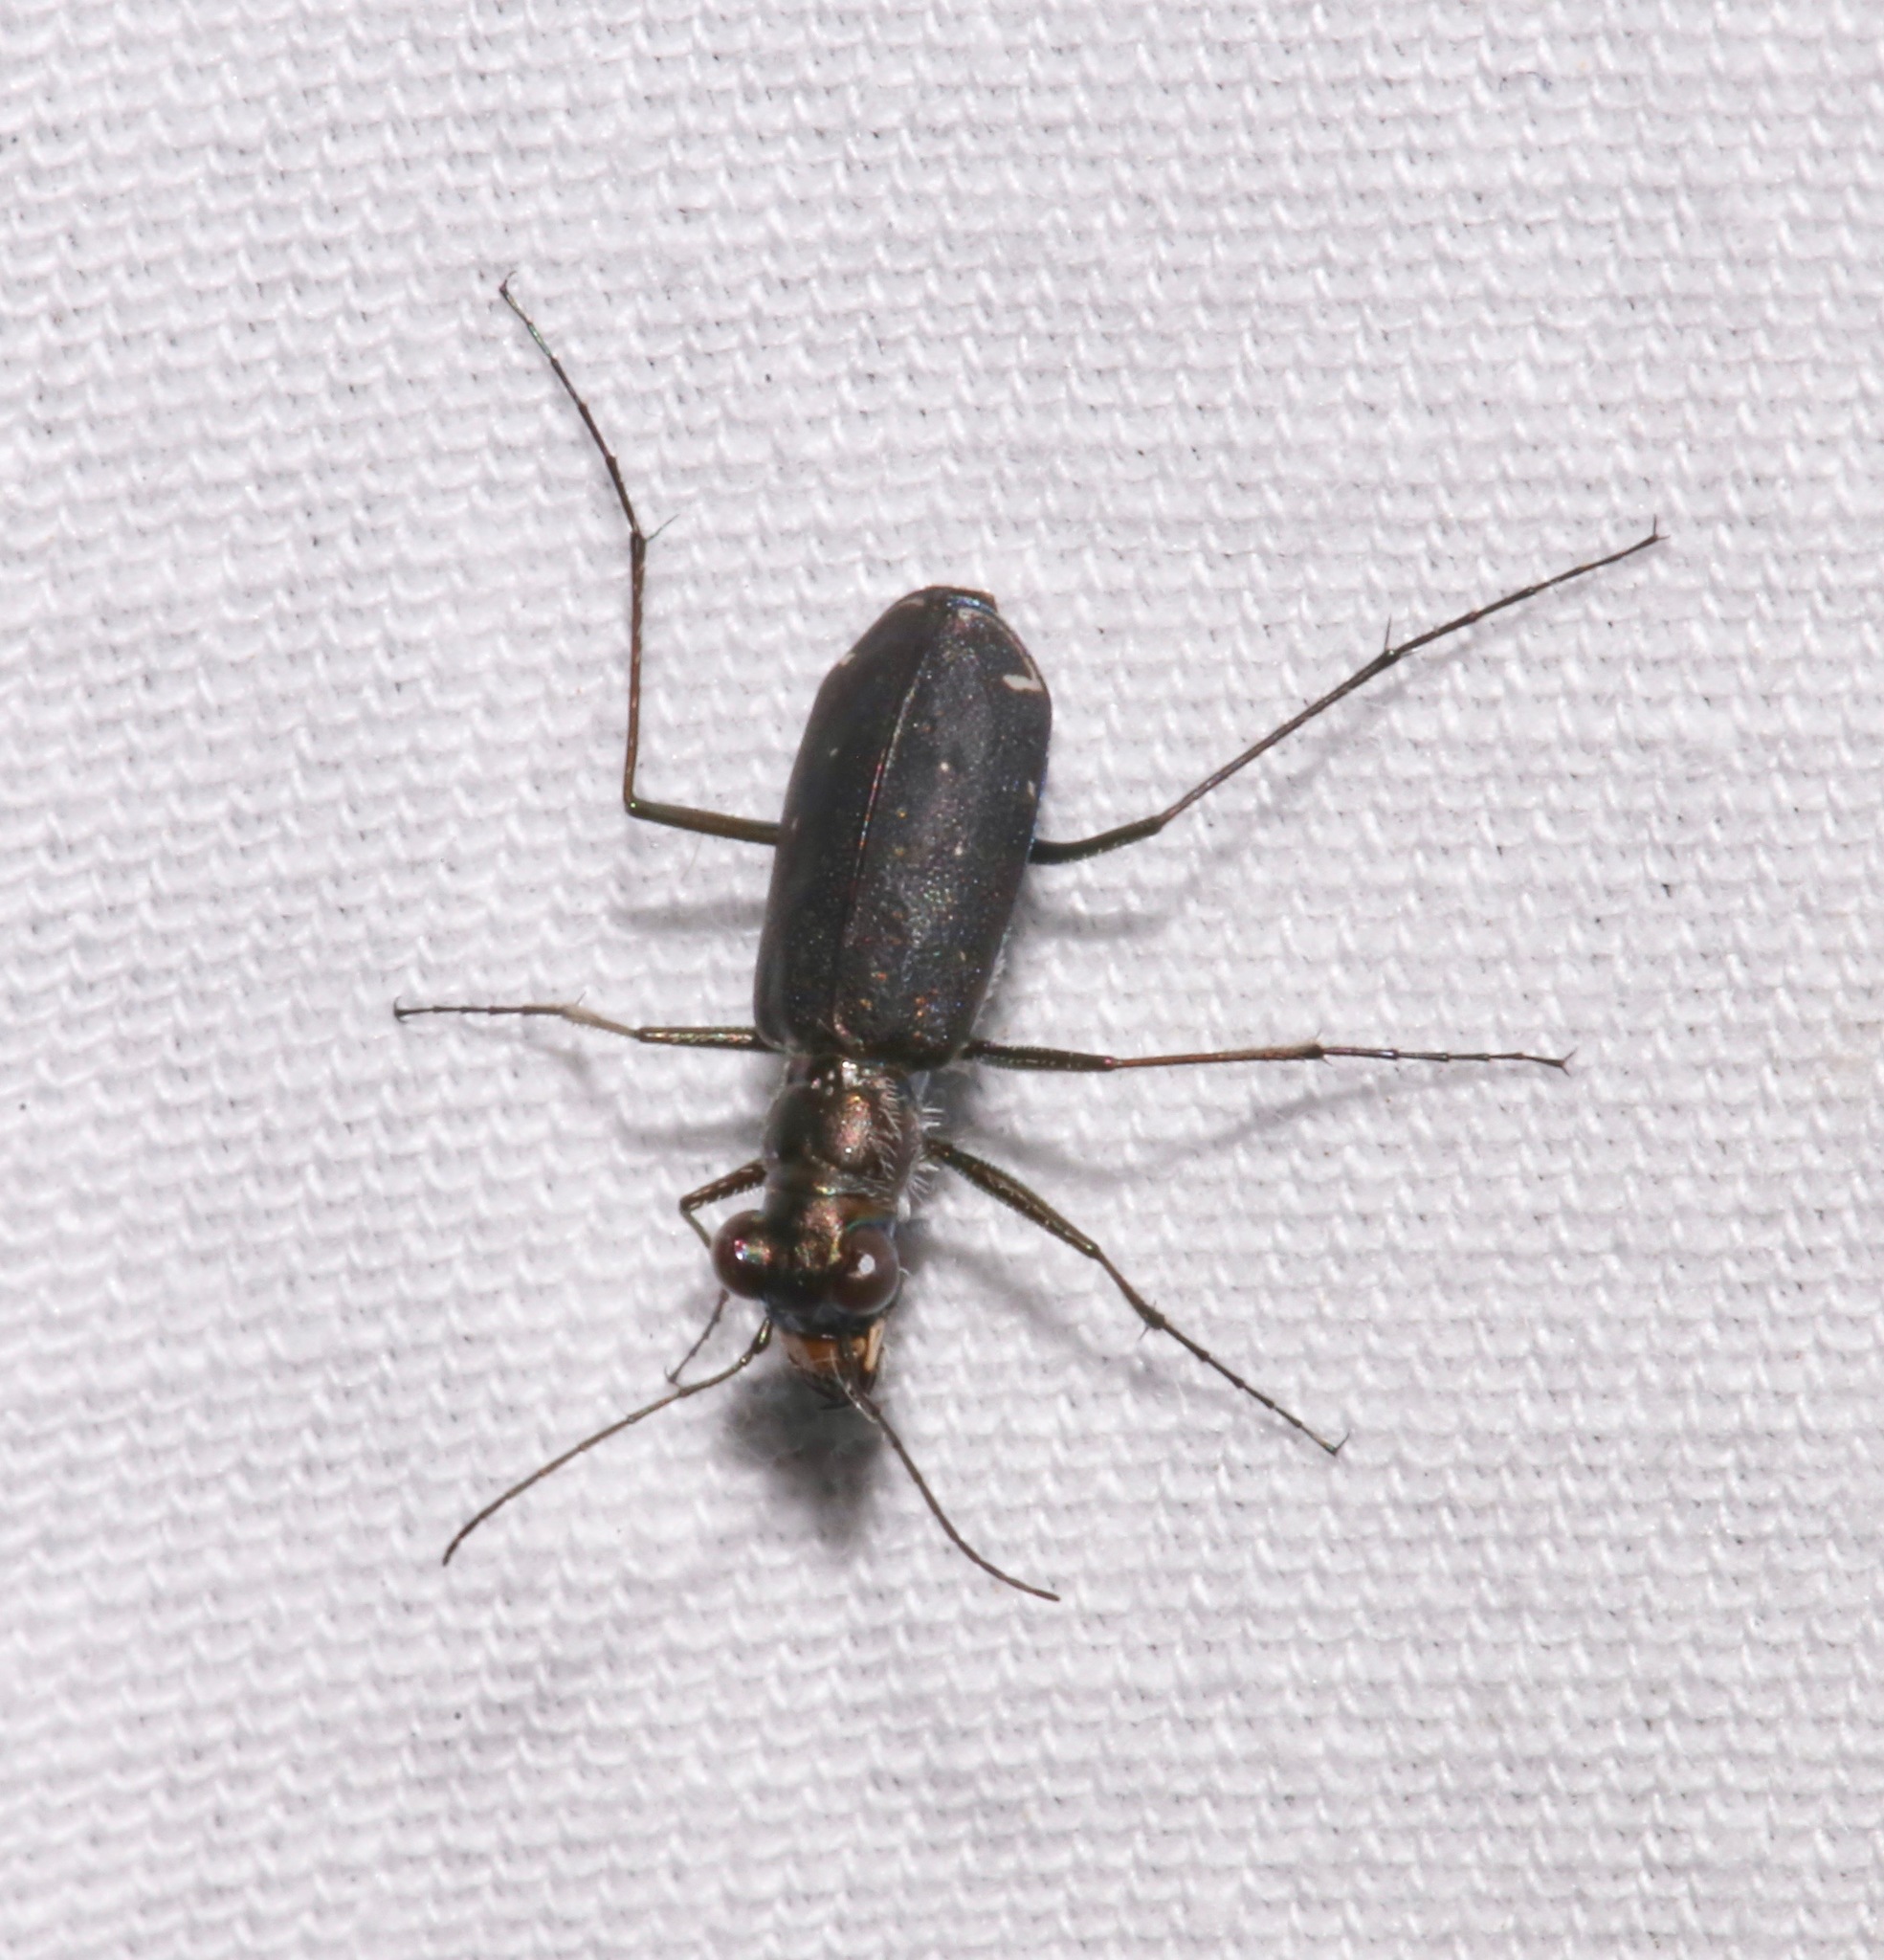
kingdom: Animalia
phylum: Arthropoda
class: Insecta
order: Coleoptera
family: Carabidae
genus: Cicindela
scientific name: Cicindela punctulata
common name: Punctured tiger beetle
